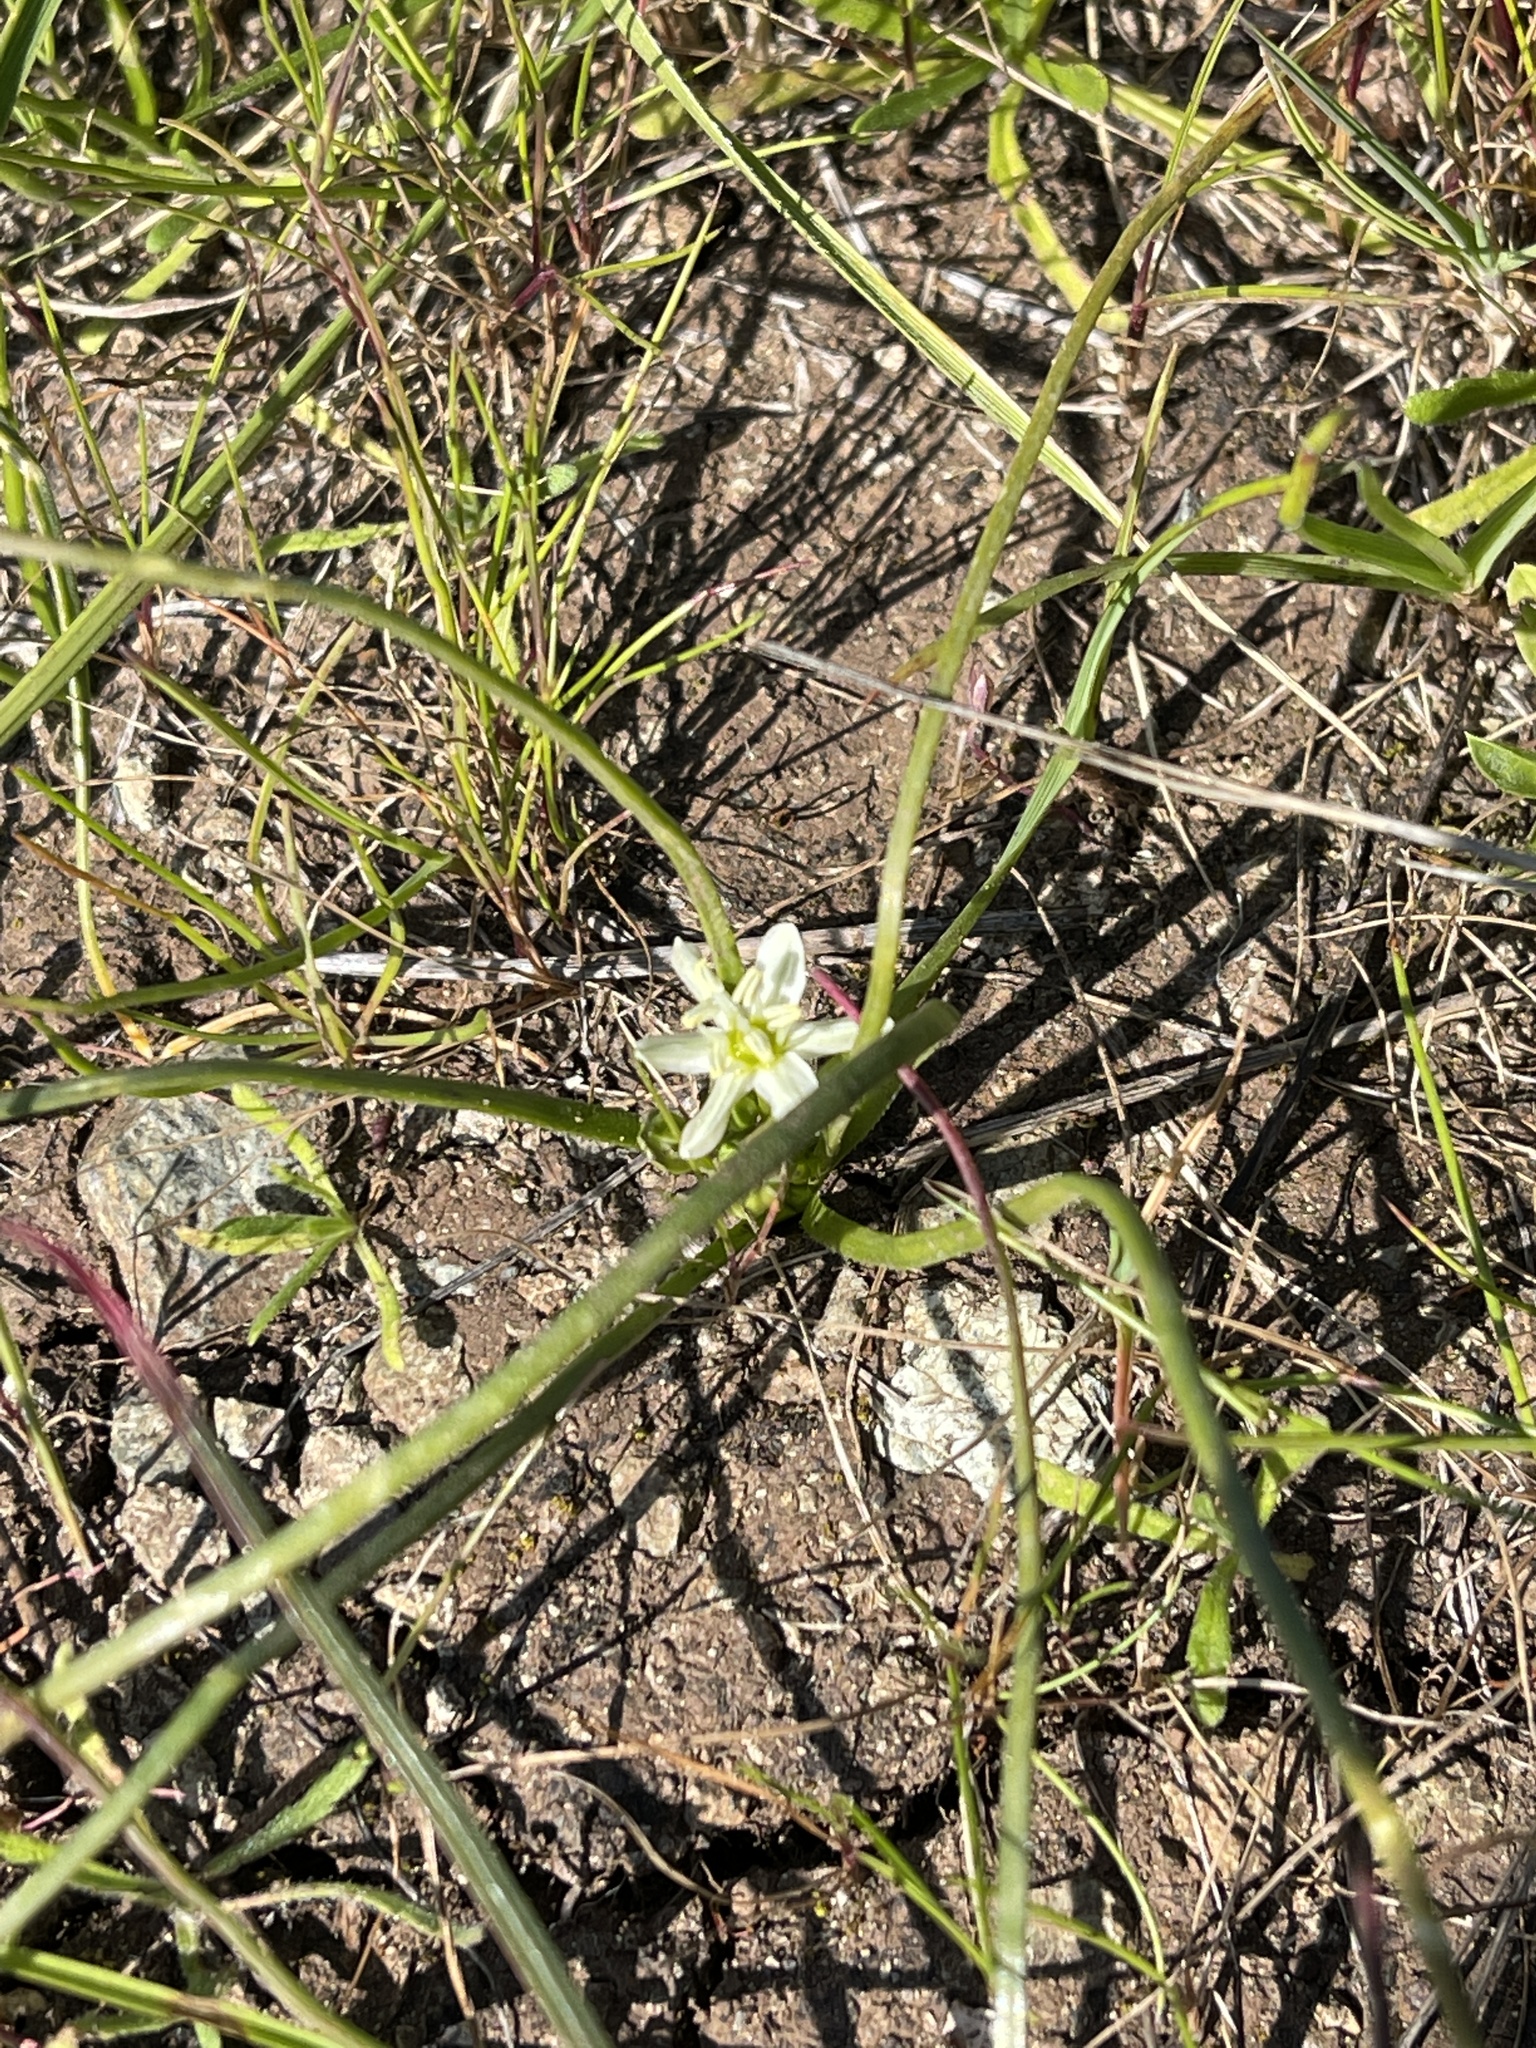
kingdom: Plantae
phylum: Tracheophyta
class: Liliopsida
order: Asparagales
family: Asparagaceae
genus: Muilla
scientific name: Muilla maritima
